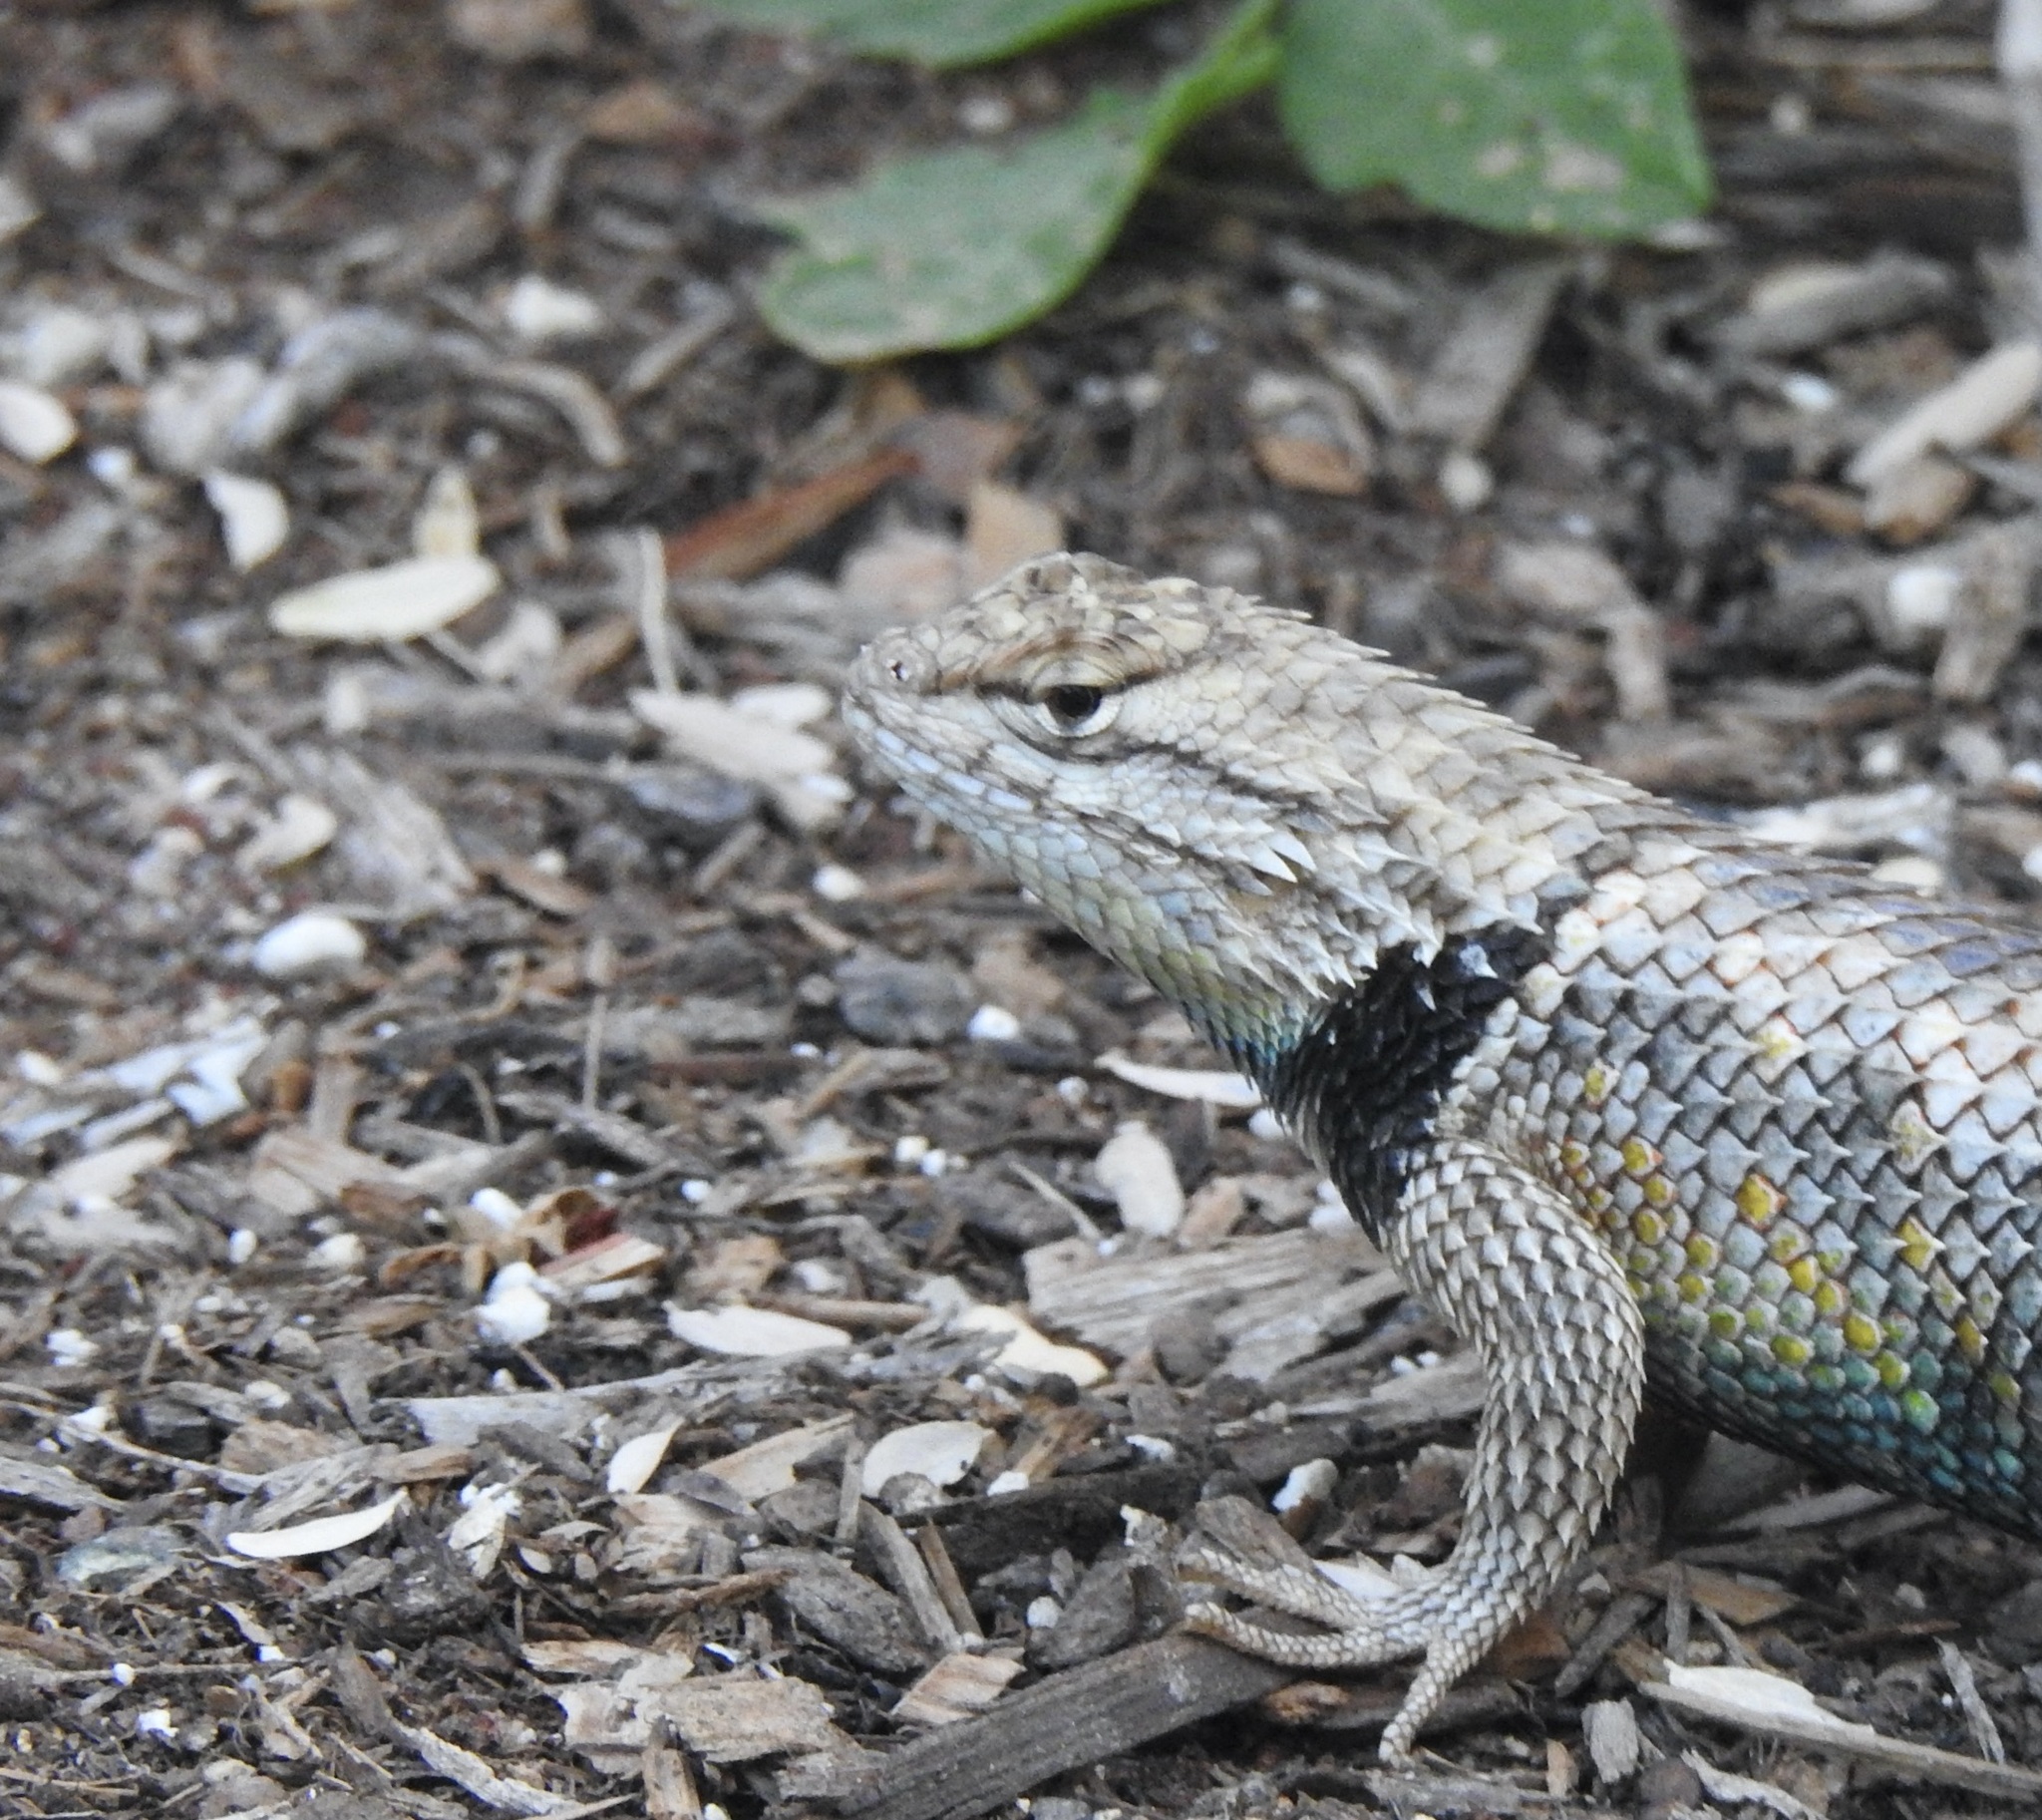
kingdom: Animalia
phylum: Chordata
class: Squamata
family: Phrynosomatidae
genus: Sceloporus
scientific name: Sceloporus magister
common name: Desert spiny lizard
